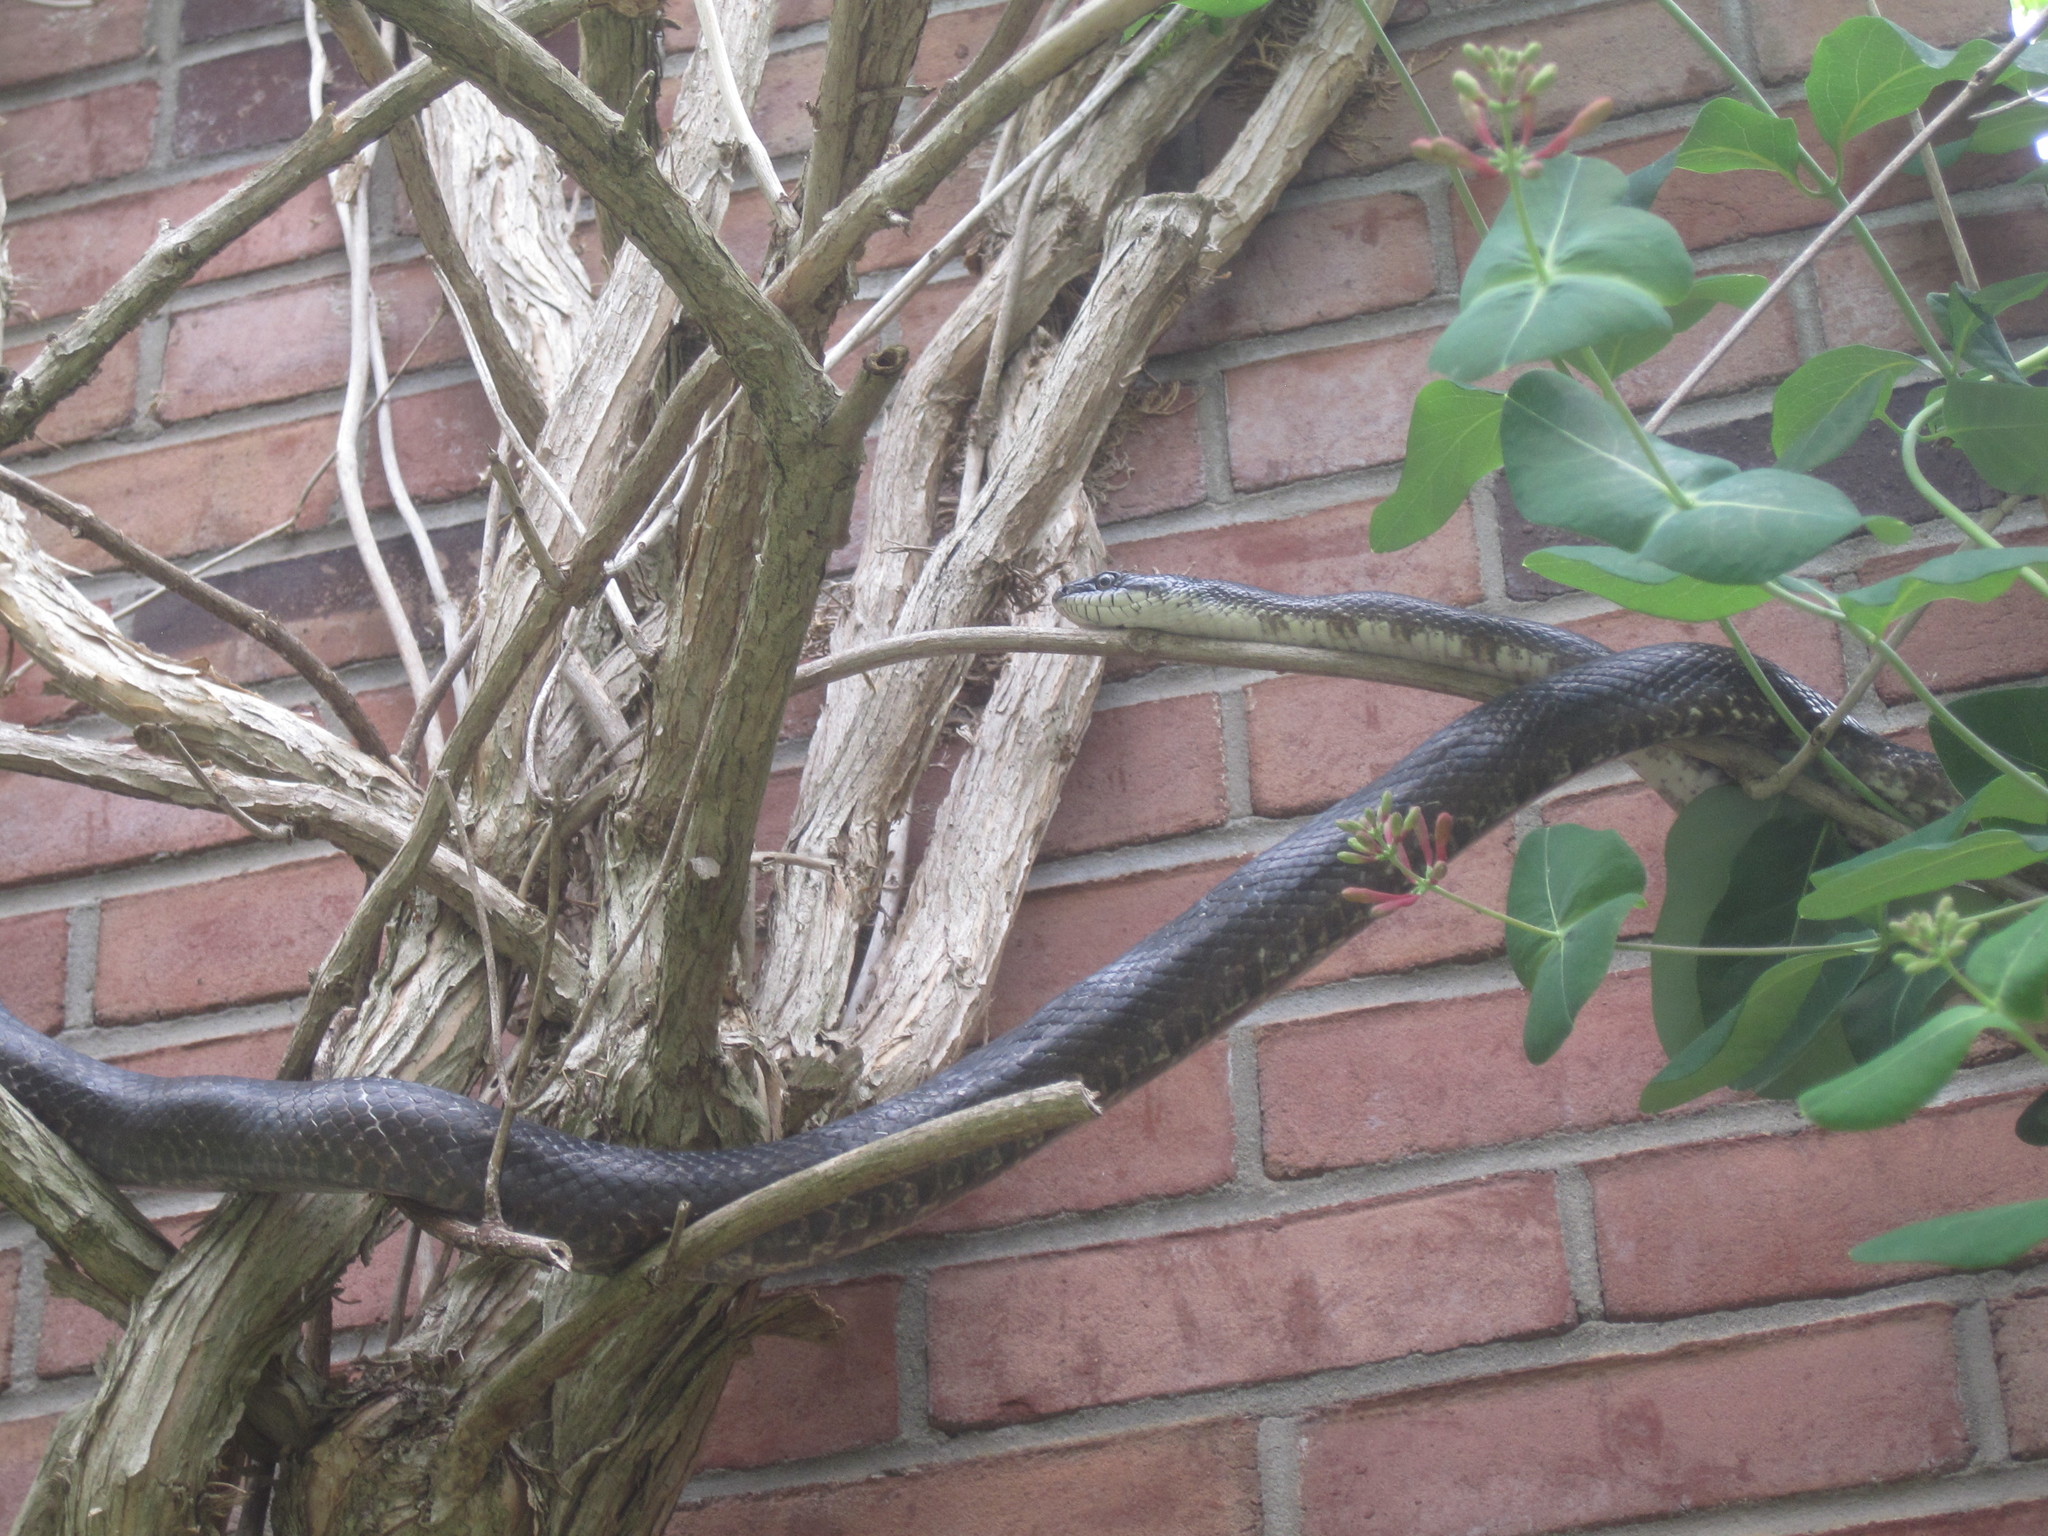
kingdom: Animalia
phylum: Chordata
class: Squamata
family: Colubridae
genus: Pantherophis
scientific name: Pantherophis alleghaniensis
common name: Eastern rat snake
